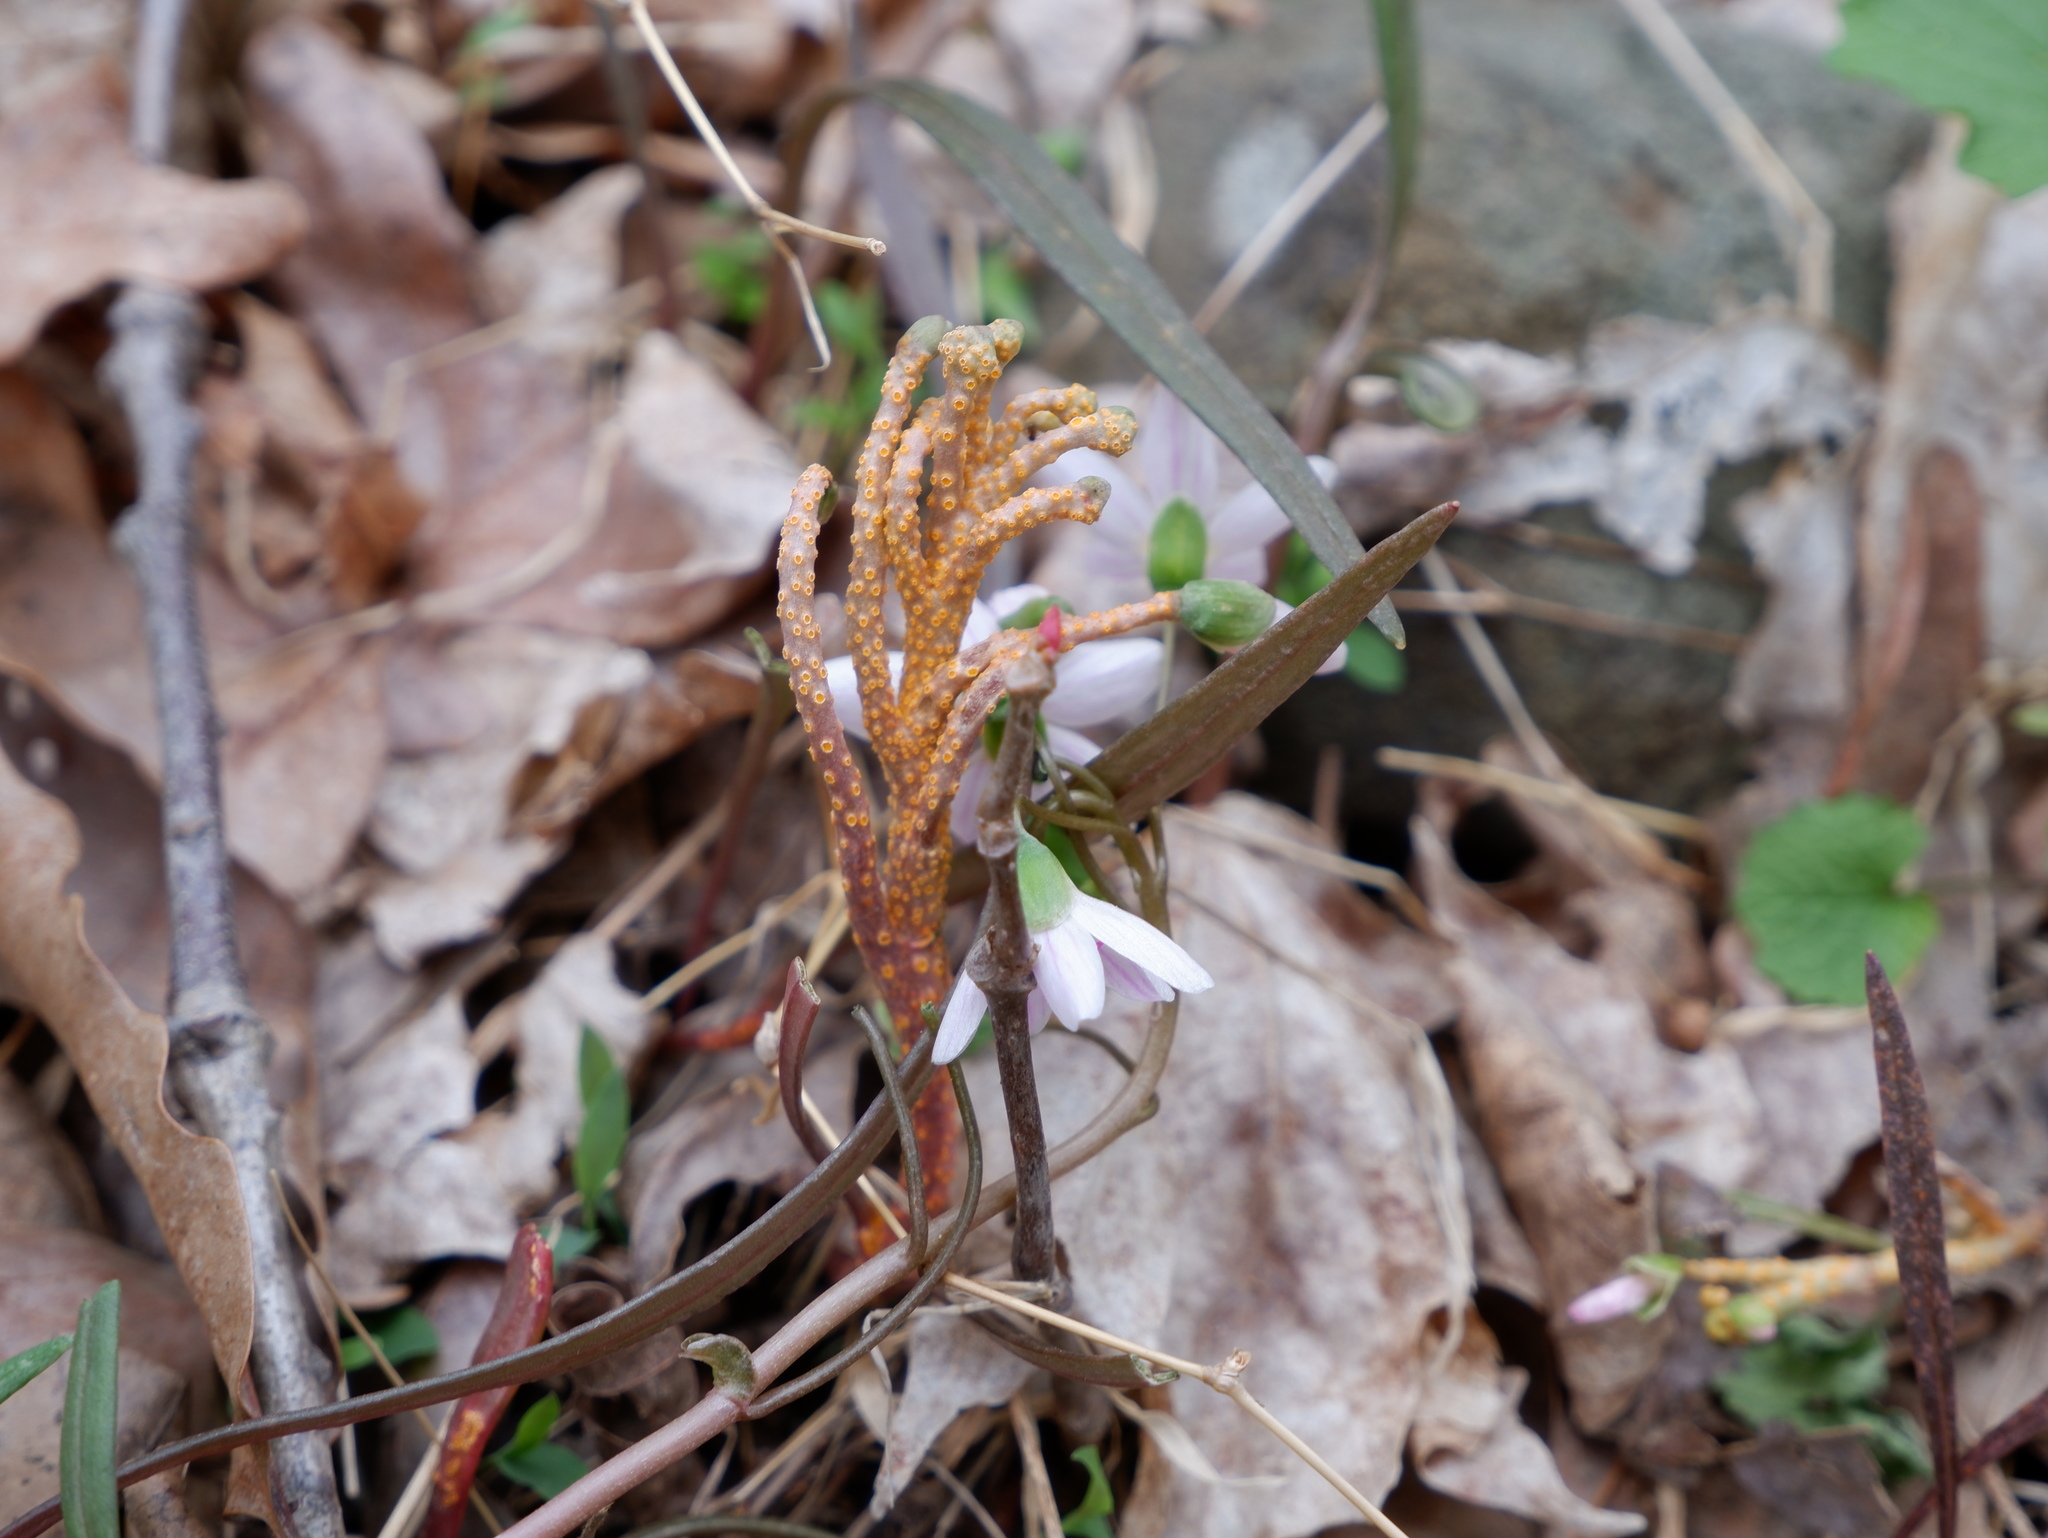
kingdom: Fungi
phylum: Basidiomycota
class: Pucciniomycetes
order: Pucciniales
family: Pucciniaceae
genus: Puccinia
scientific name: Puccinia mariae-wilsoniae
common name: Spring beauty rust
